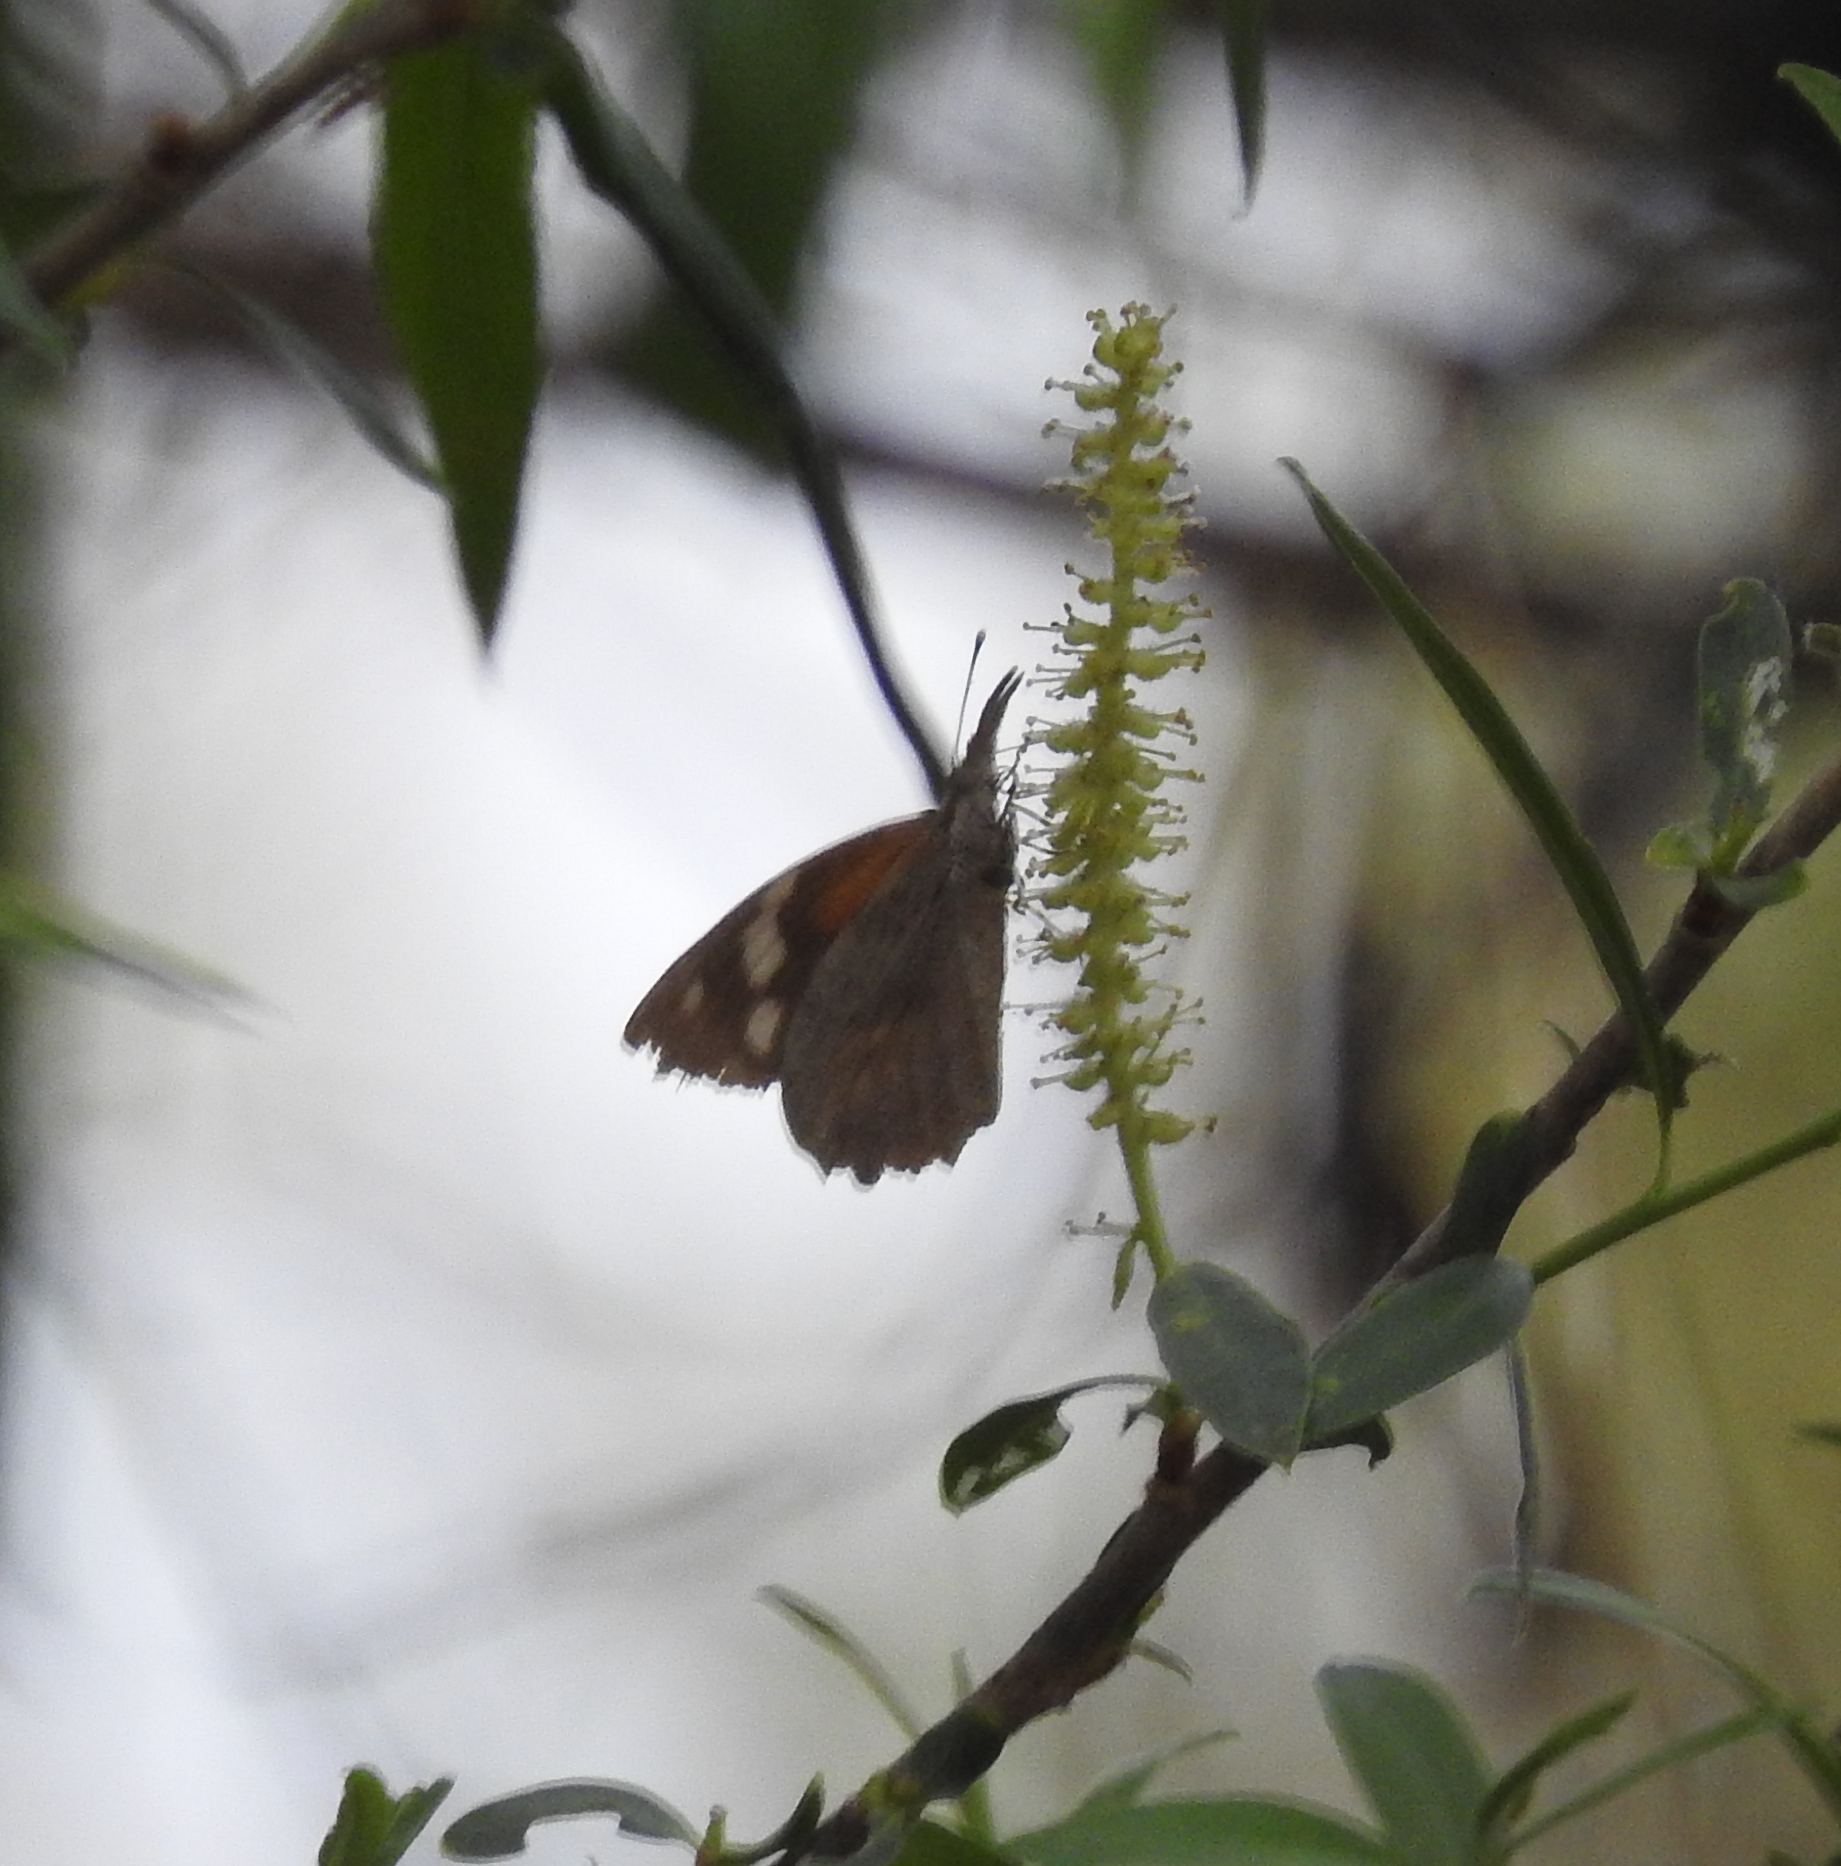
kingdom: Animalia
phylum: Arthropoda
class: Insecta
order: Lepidoptera
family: Nymphalidae
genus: Libytheana
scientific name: Libytheana carinenta
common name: American snout
